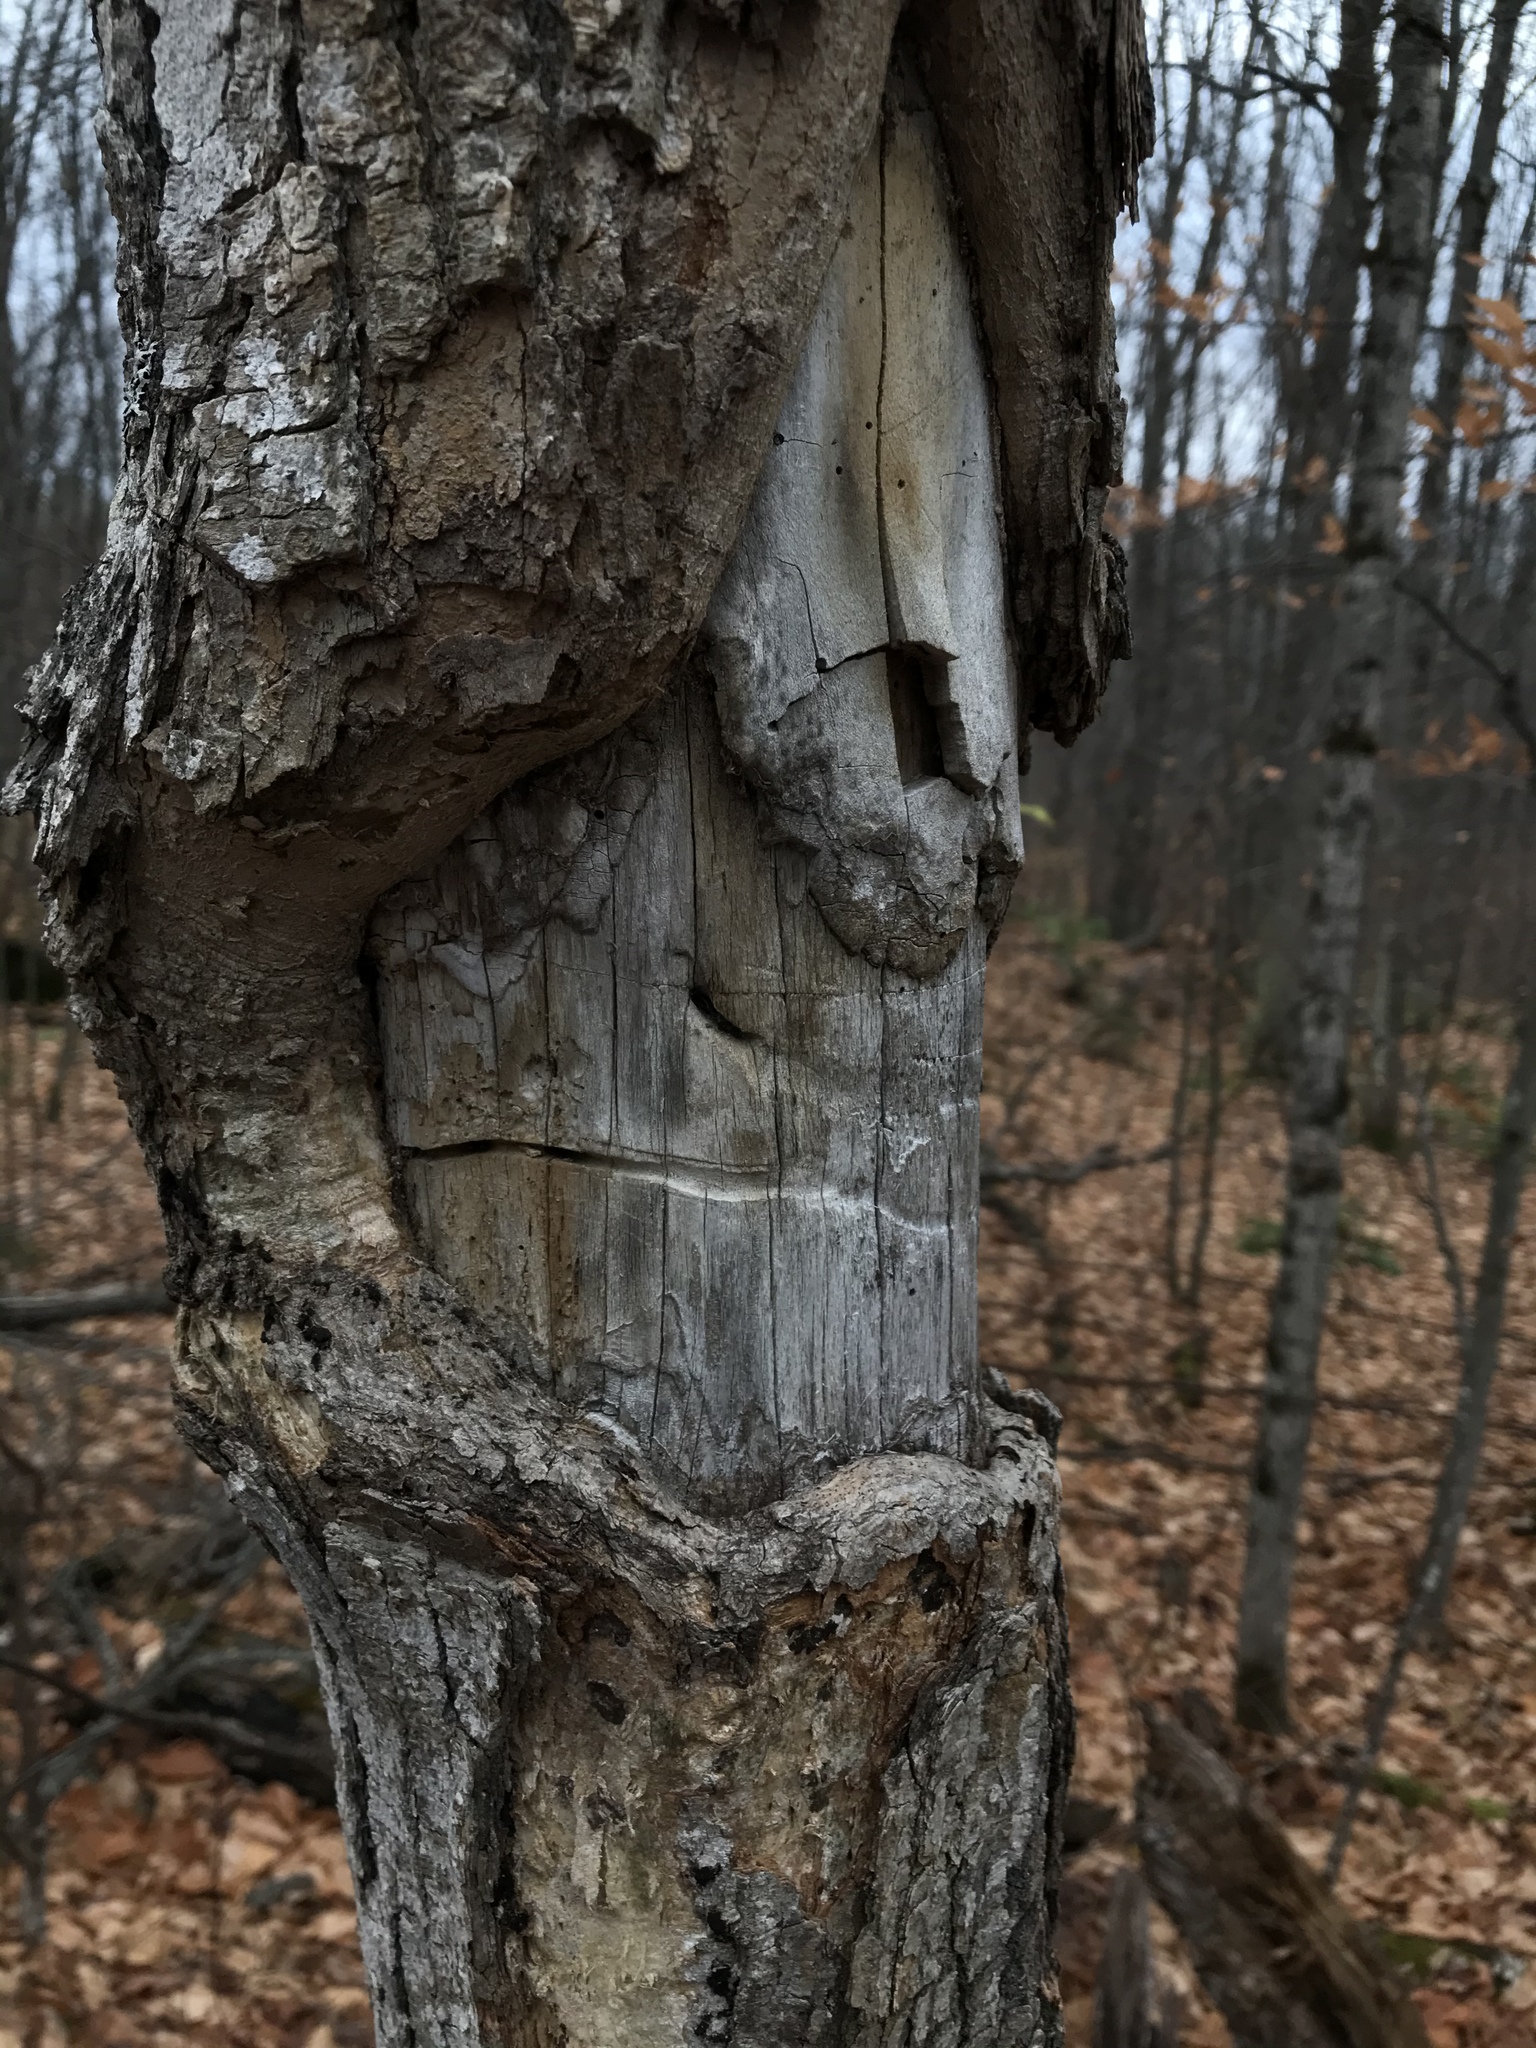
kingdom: Animalia
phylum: Arthropoda
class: Insecta
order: Coleoptera
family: Cerambycidae
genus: Glycobius
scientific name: Glycobius speciosus
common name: Sugar maple borer
